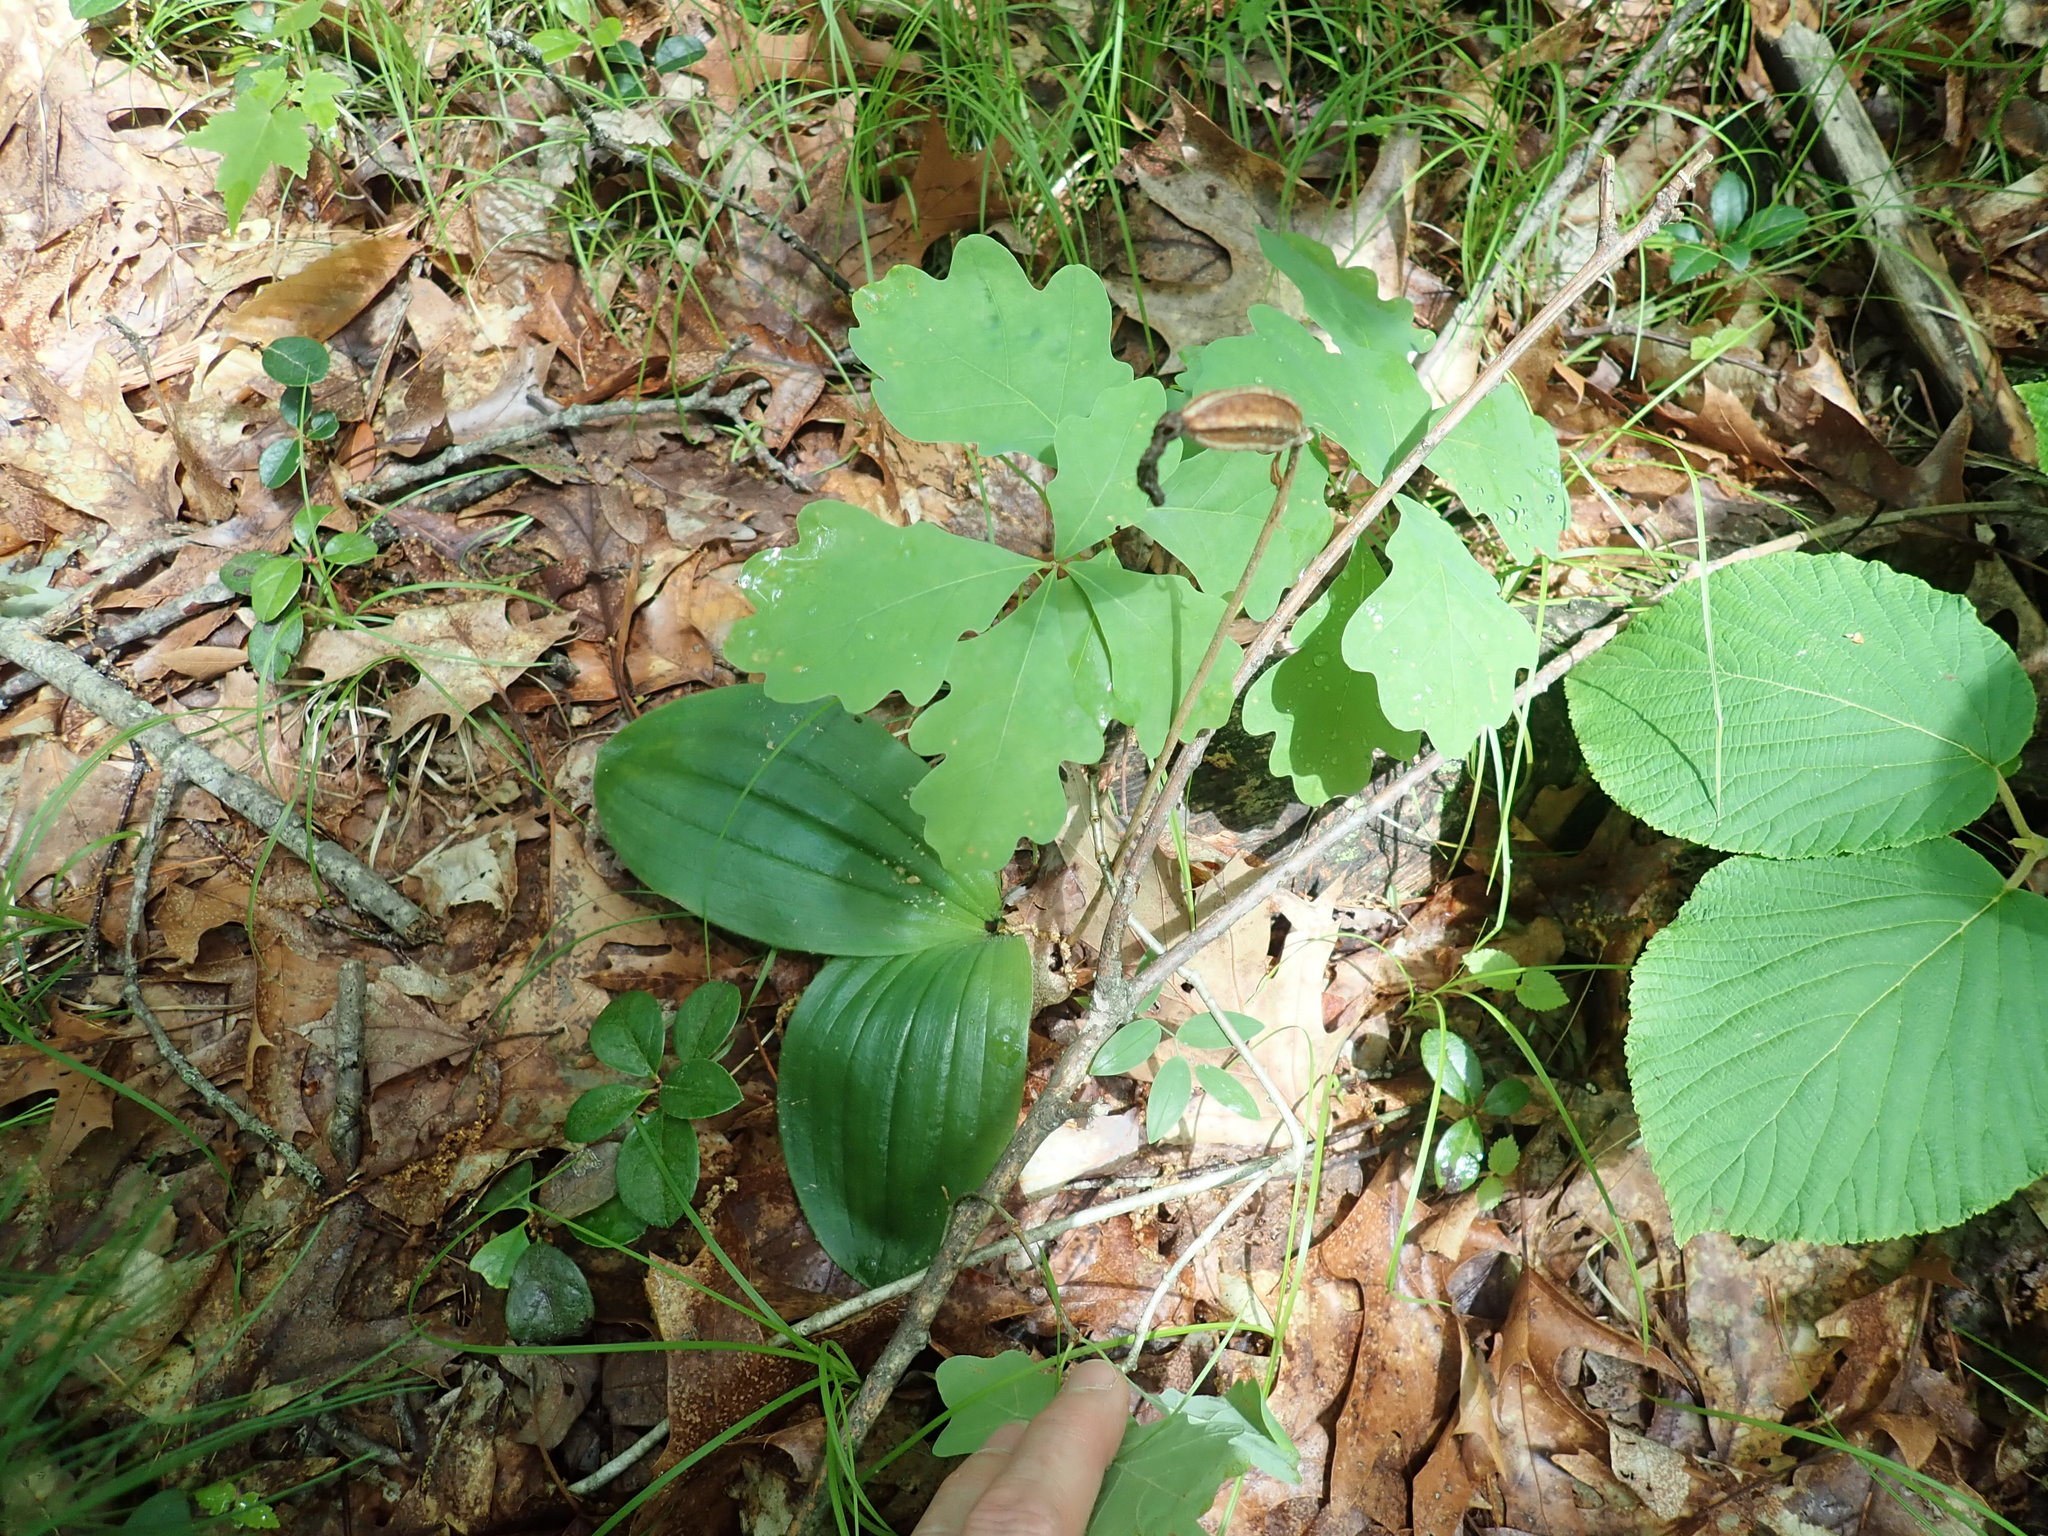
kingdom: Plantae
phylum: Tracheophyta
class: Liliopsida
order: Asparagales
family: Orchidaceae
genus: Cypripedium
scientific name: Cypripedium acaule
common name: Pink lady's-slipper
